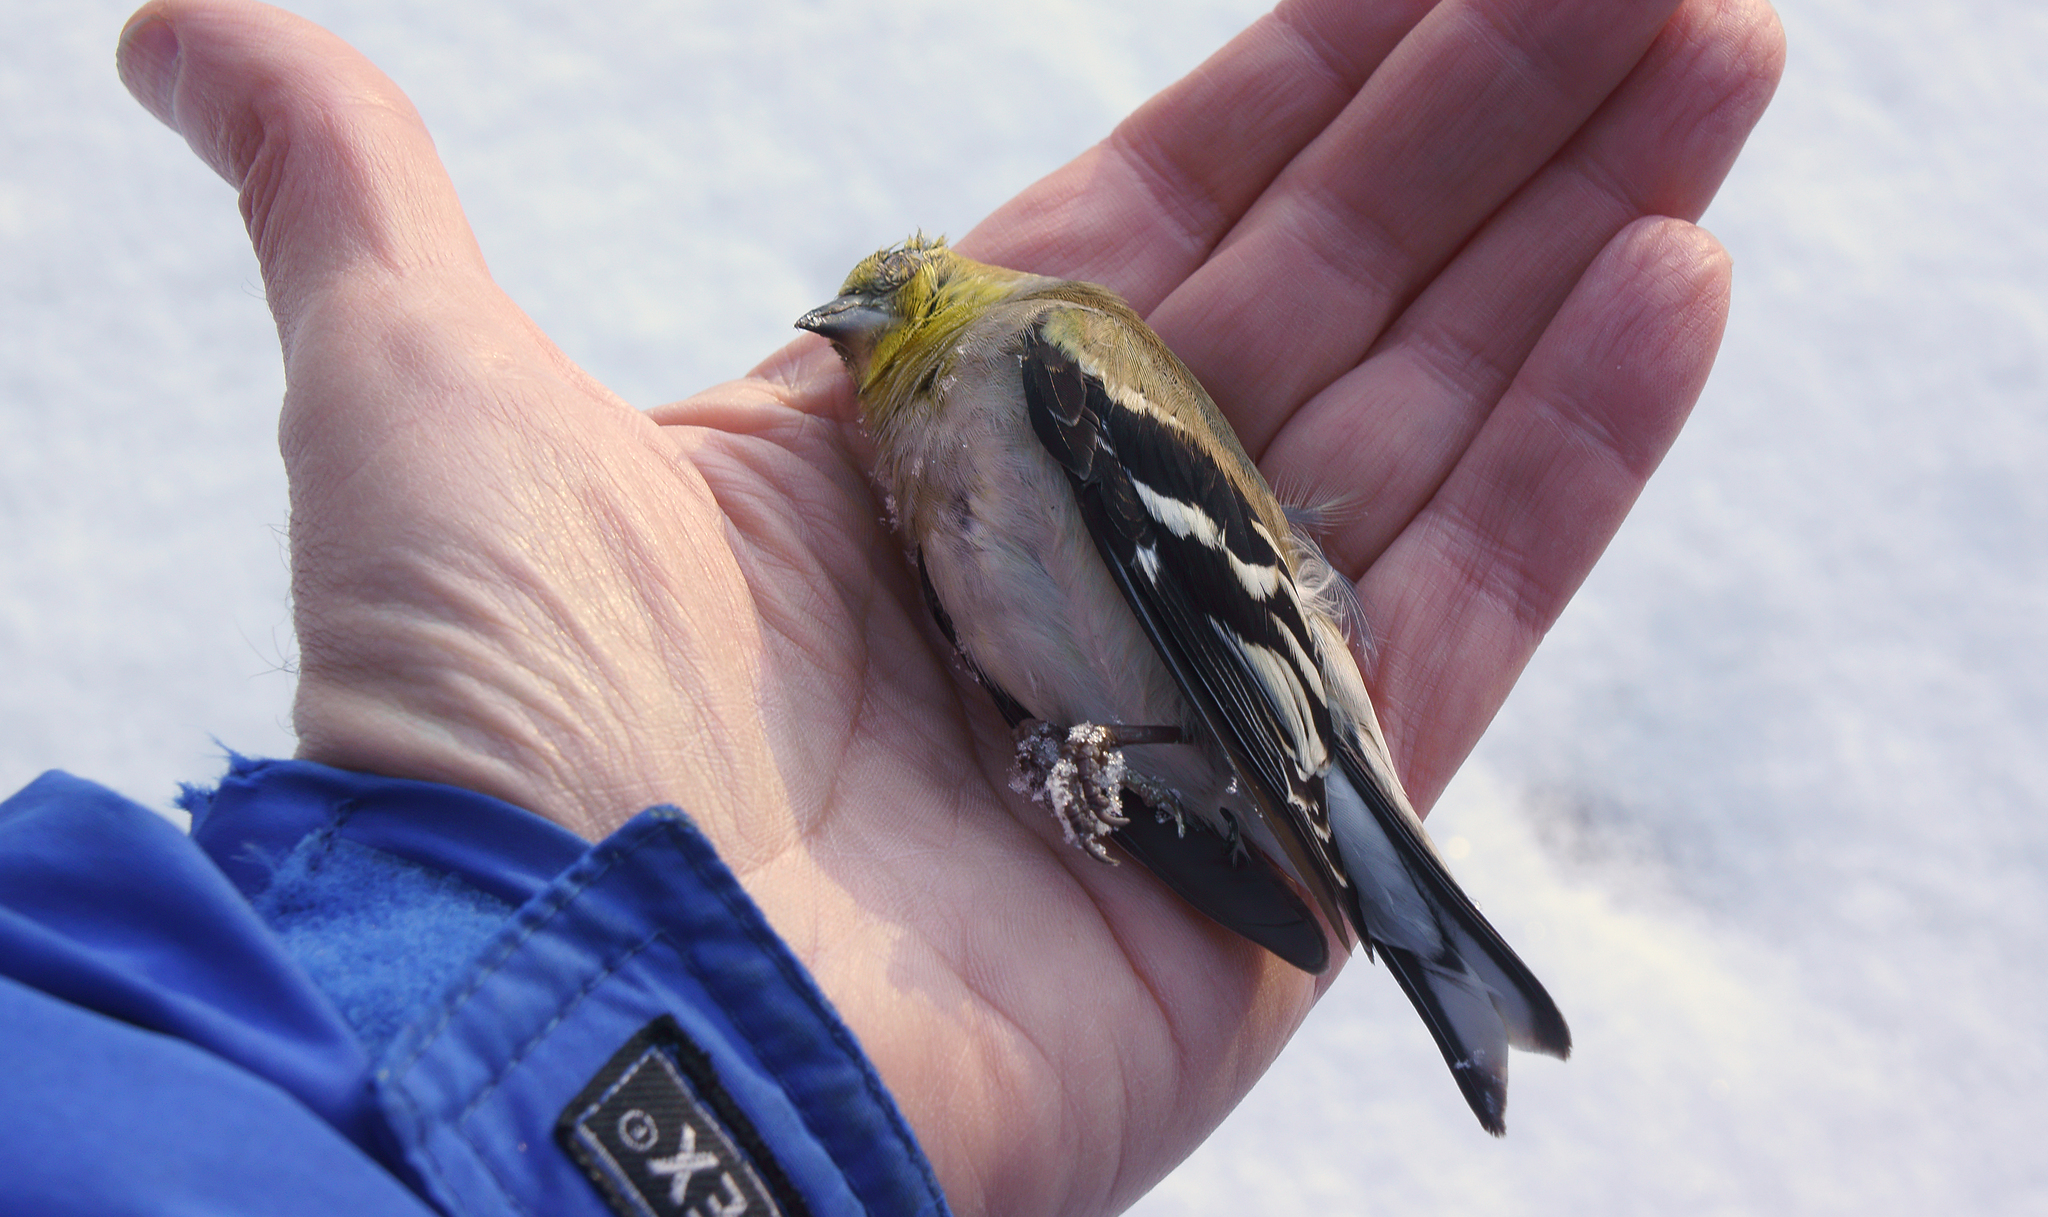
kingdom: Animalia
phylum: Chordata
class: Aves
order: Passeriformes
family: Fringillidae
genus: Spinus
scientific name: Spinus tristis
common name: American goldfinch
